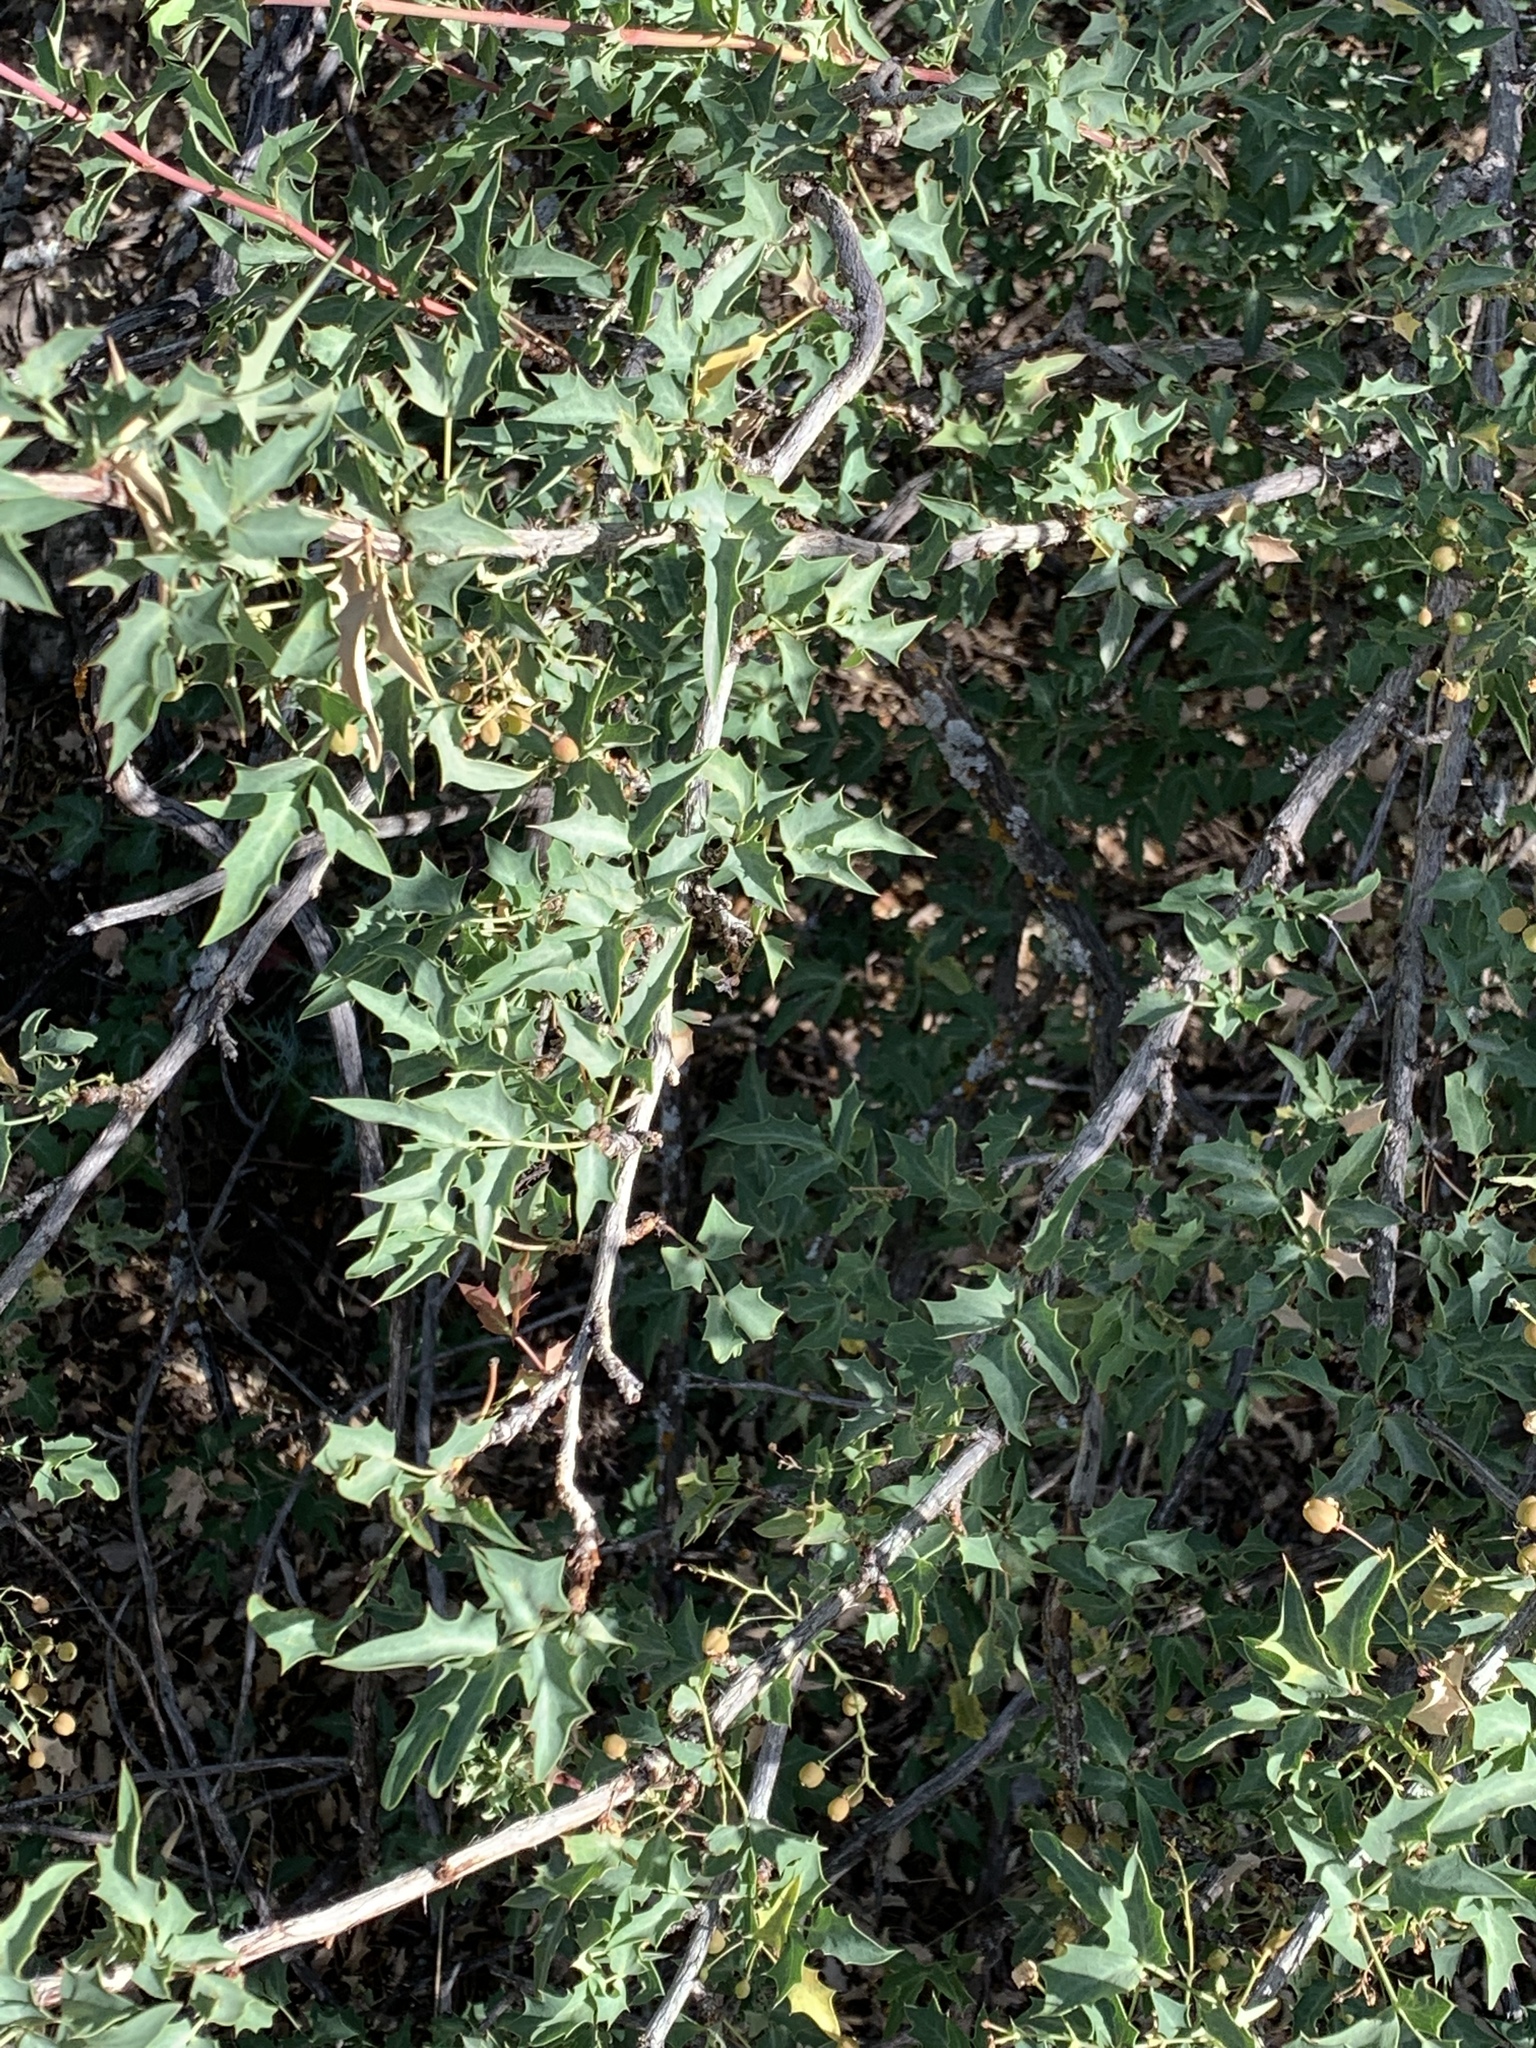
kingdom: Plantae
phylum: Tracheophyta
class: Magnoliopsida
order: Ranunculales
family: Berberidaceae
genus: Alloberberis
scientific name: Alloberberis haematocarpa
